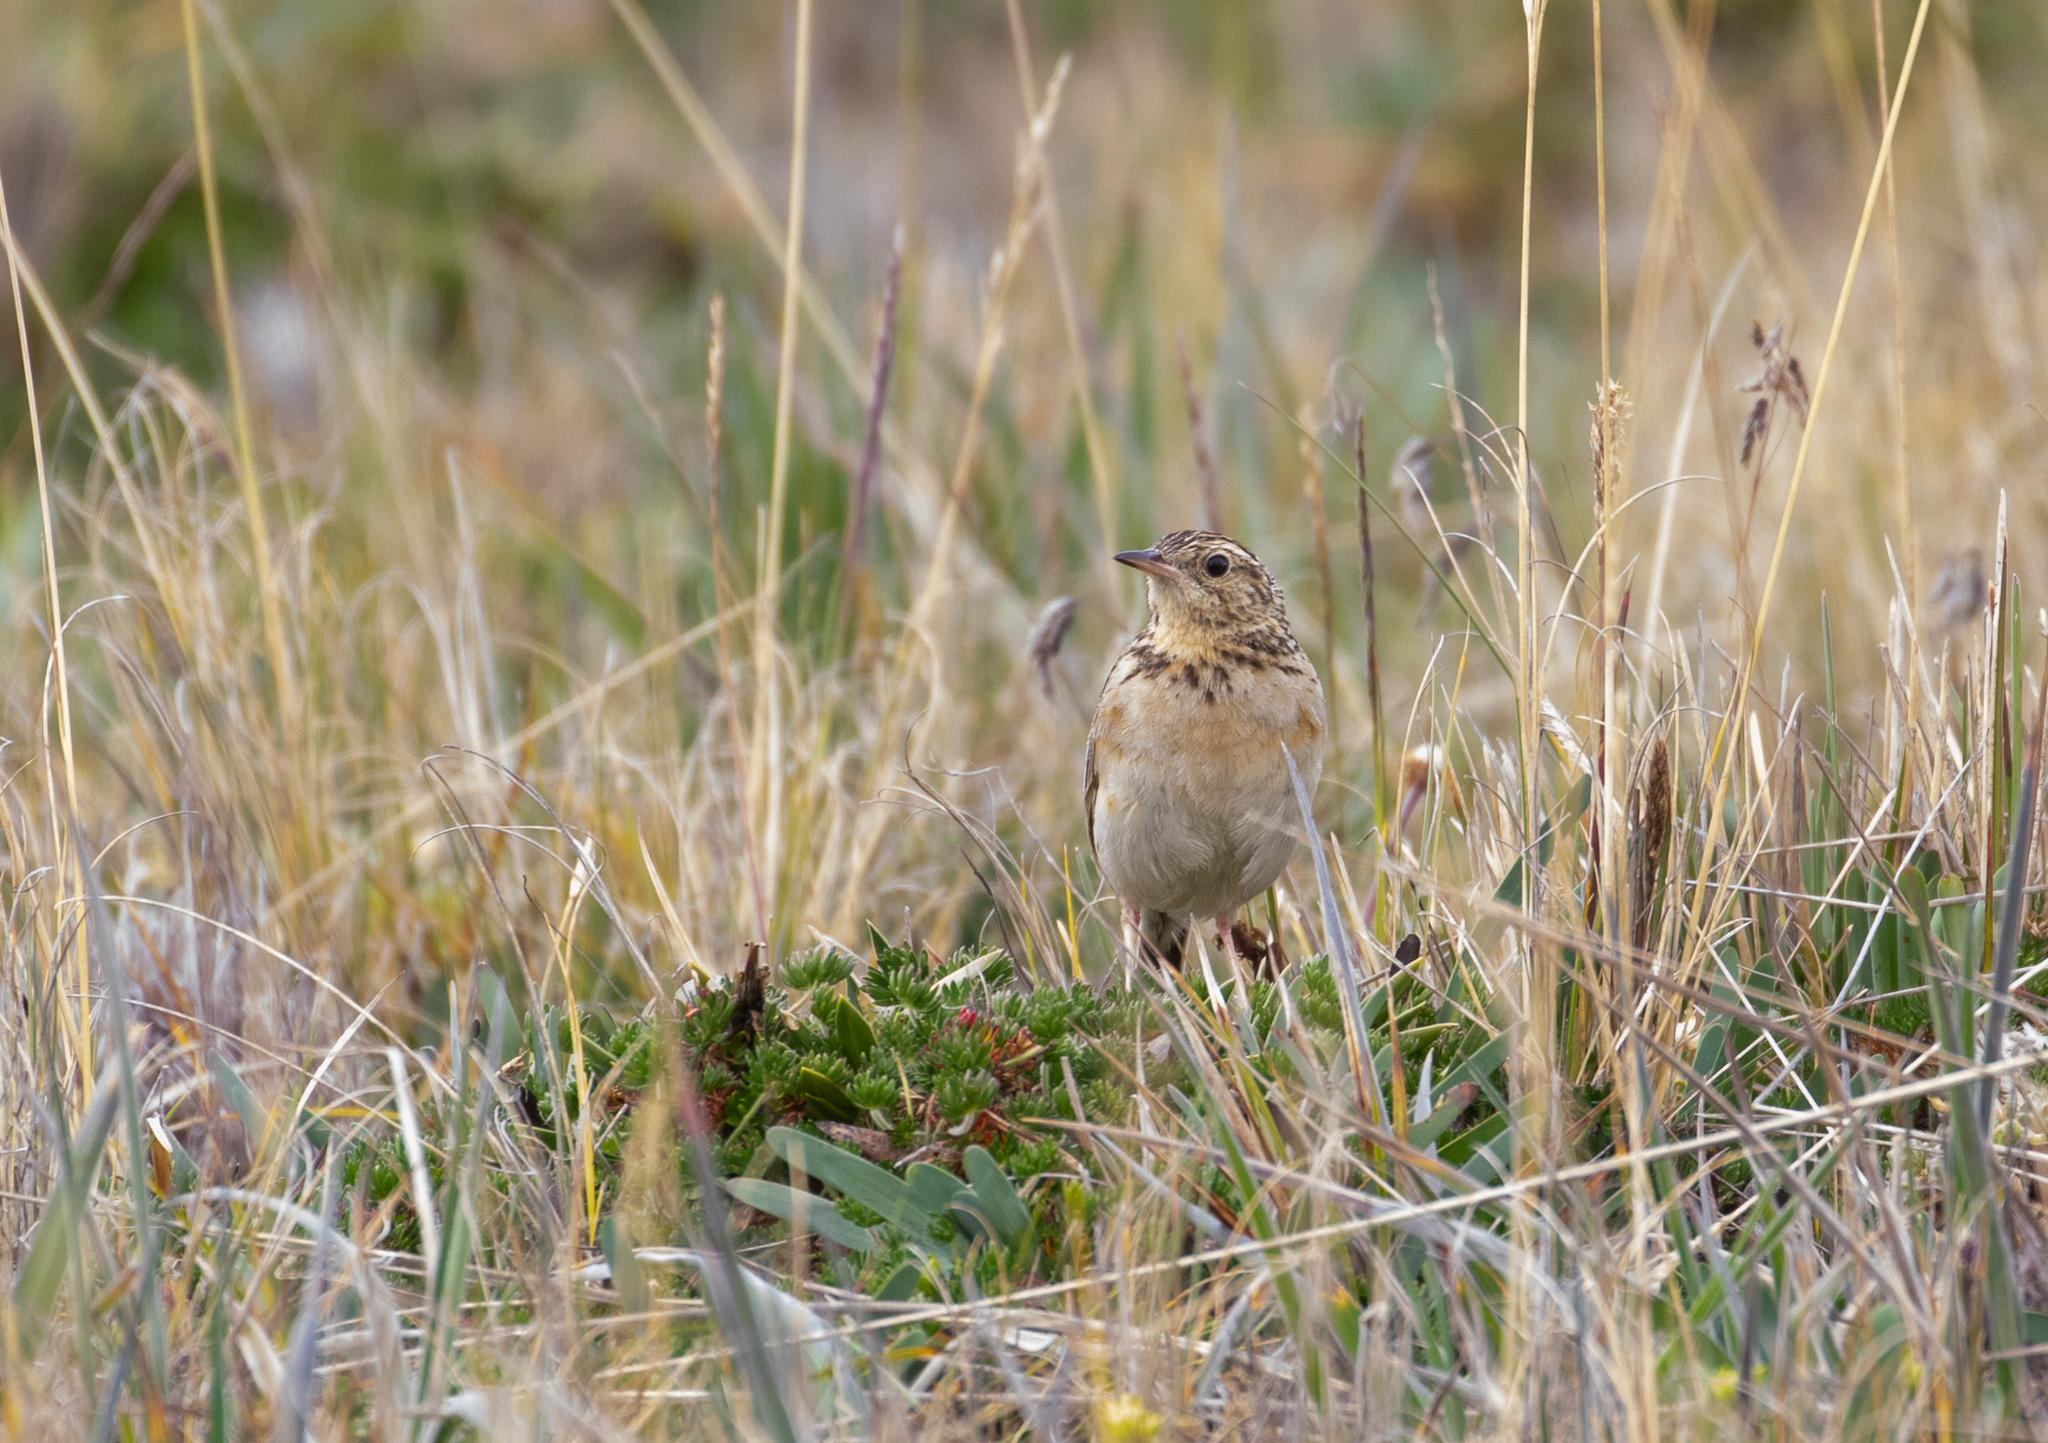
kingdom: Animalia
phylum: Chordata
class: Aves
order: Passeriformes
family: Motacillidae
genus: Anthus
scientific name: Anthus bogotensis
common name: Paramo pipit
